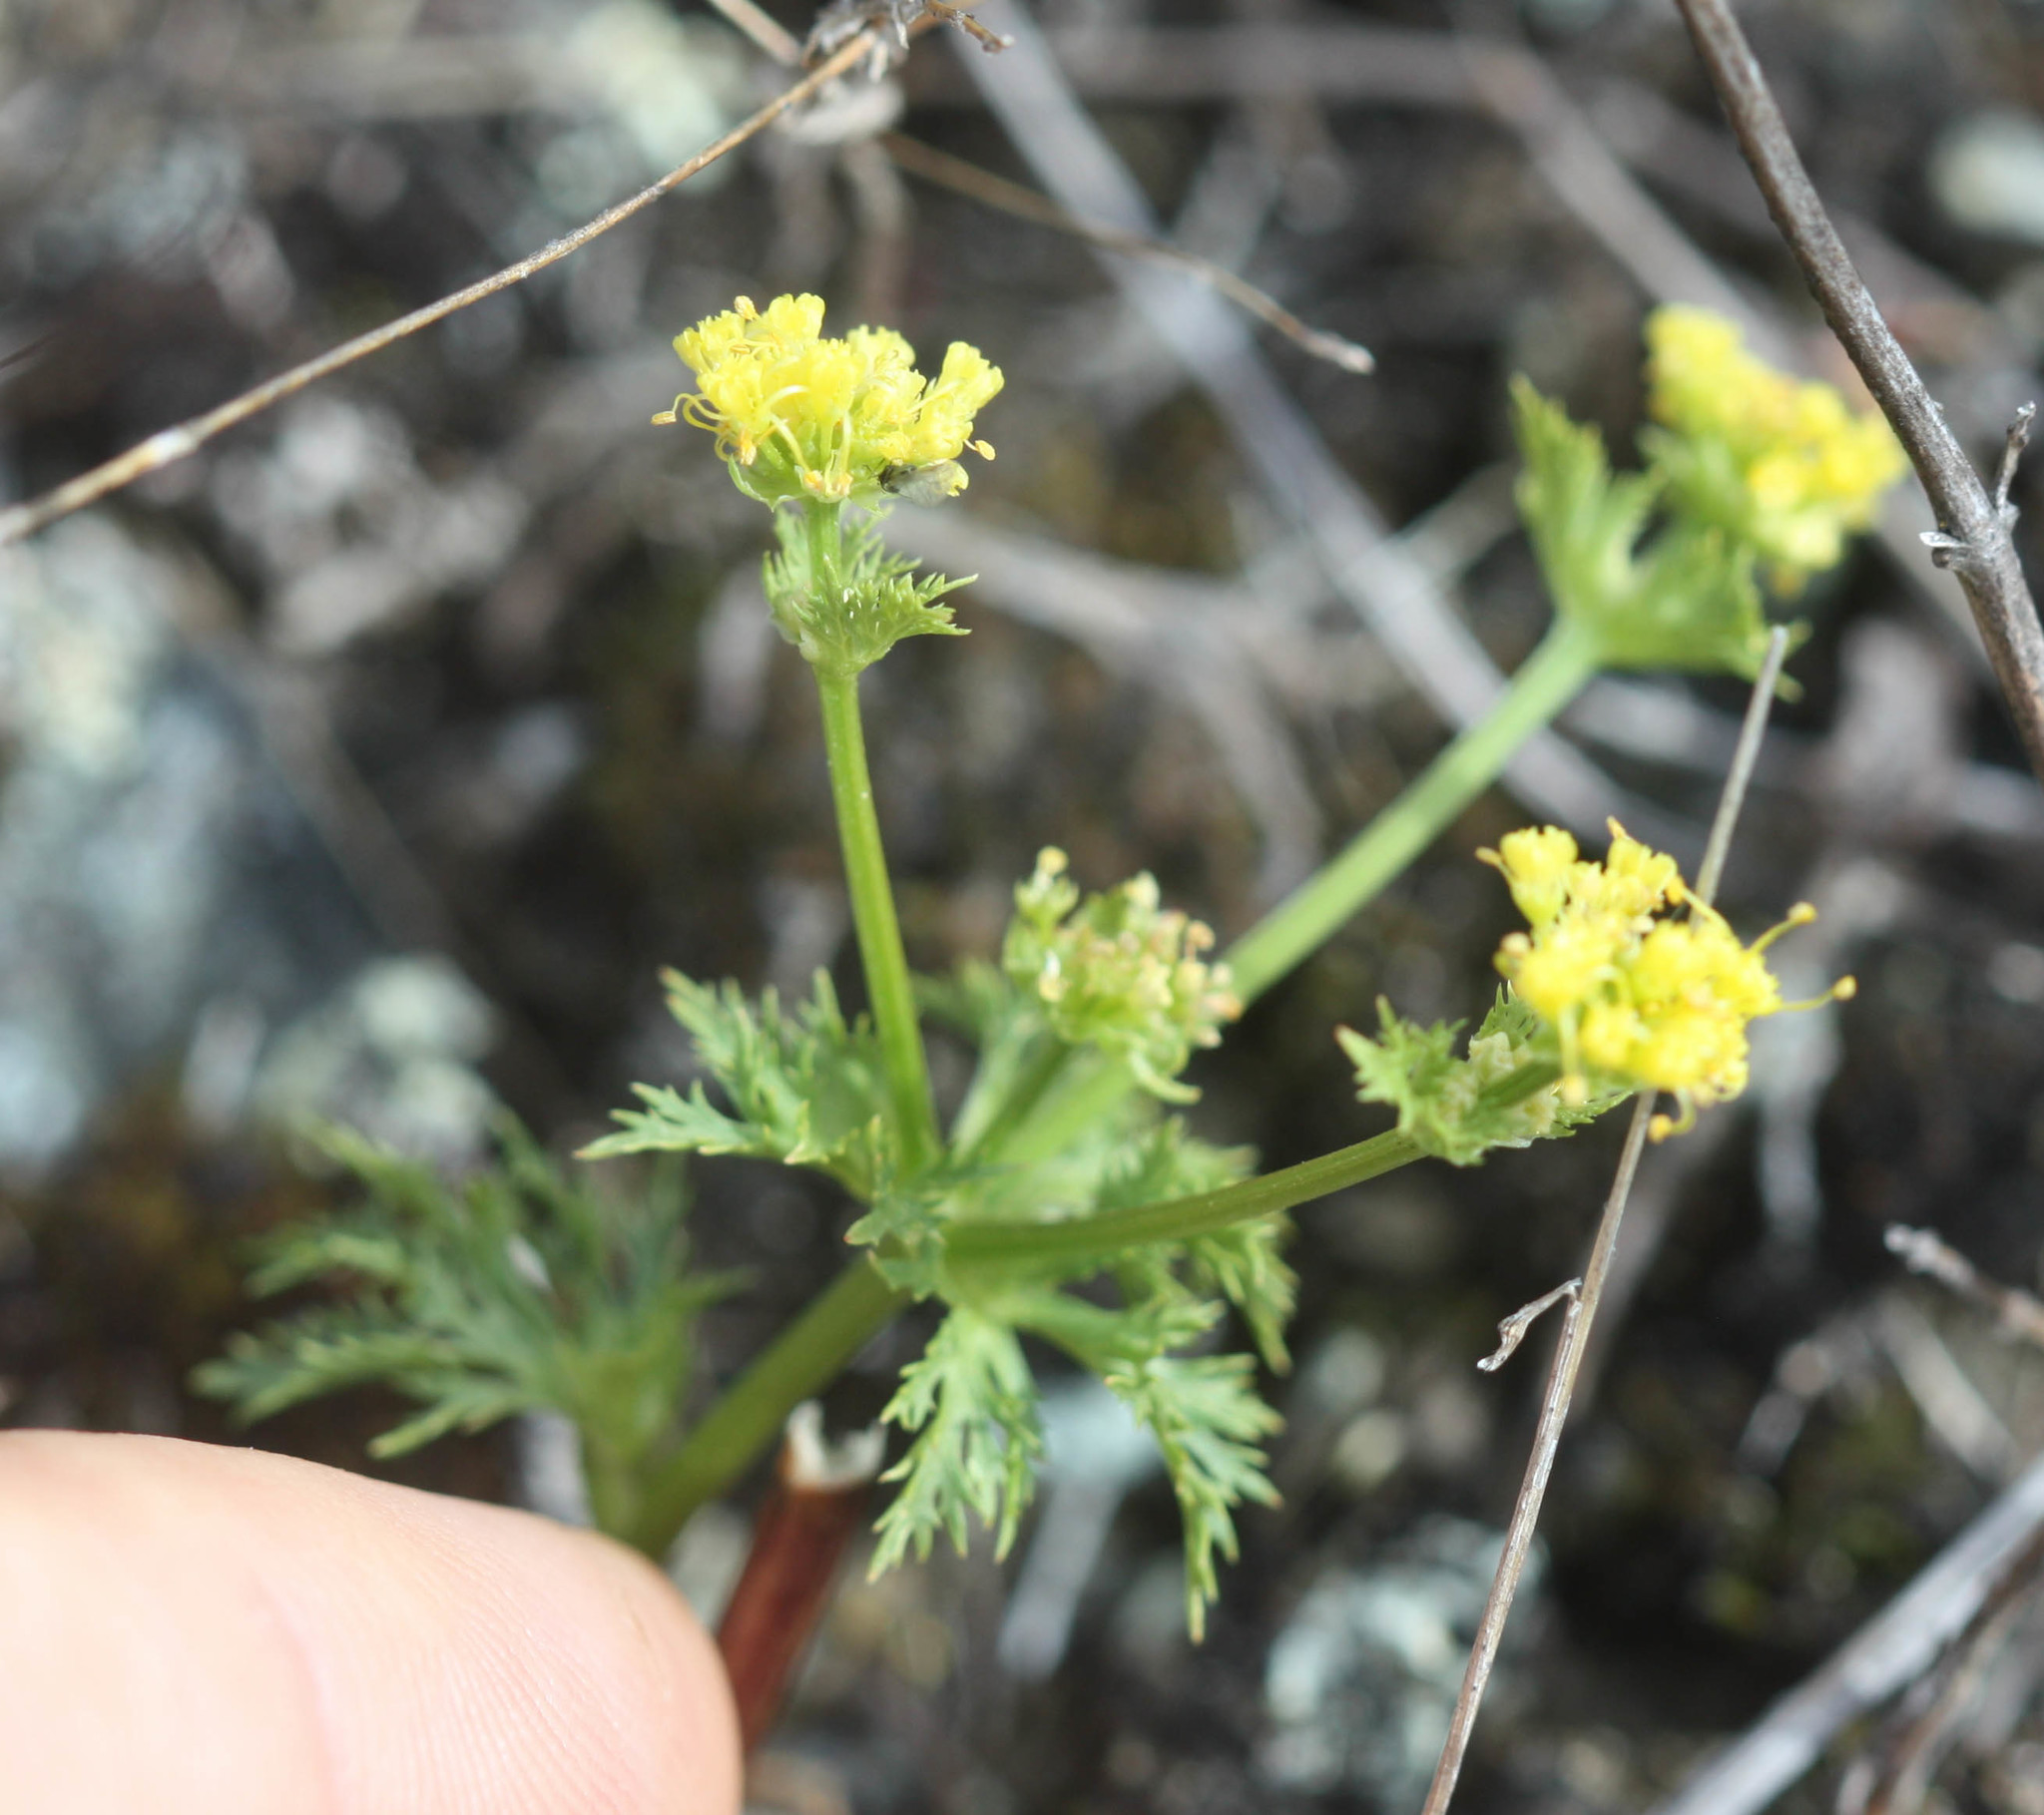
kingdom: Plantae
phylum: Tracheophyta
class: Magnoliopsida
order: Apiales
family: Apiaceae
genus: Sanicula
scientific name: Sanicula tuberosa
